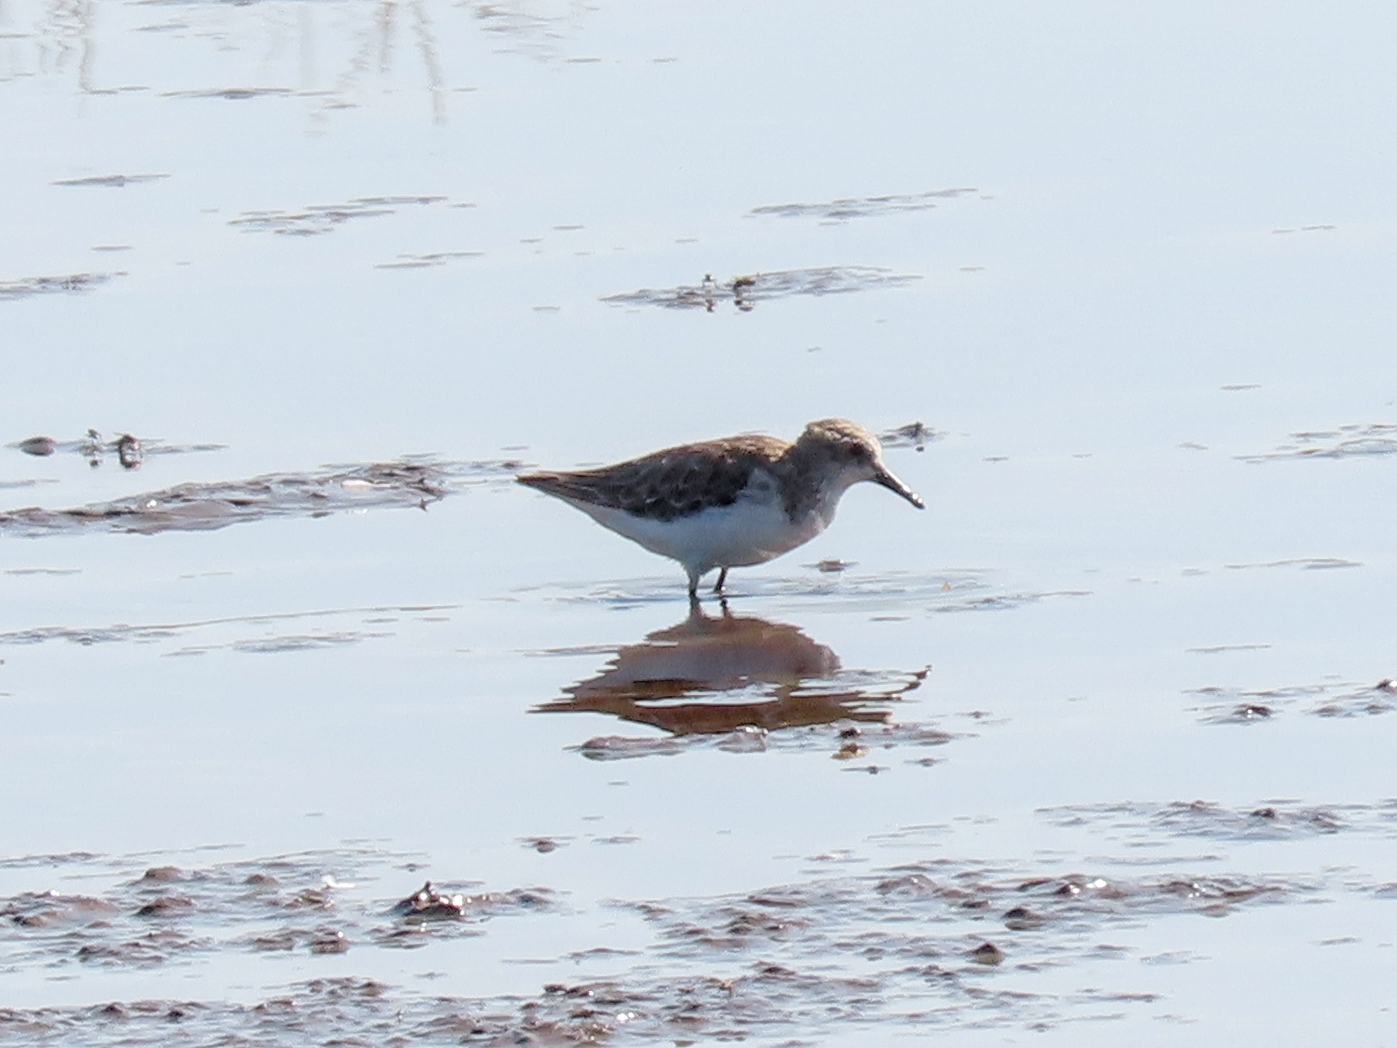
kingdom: Animalia
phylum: Chordata
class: Aves
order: Charadriiformes
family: Scolopacidae
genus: Calidris
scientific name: Calidris minuta
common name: Little stint
